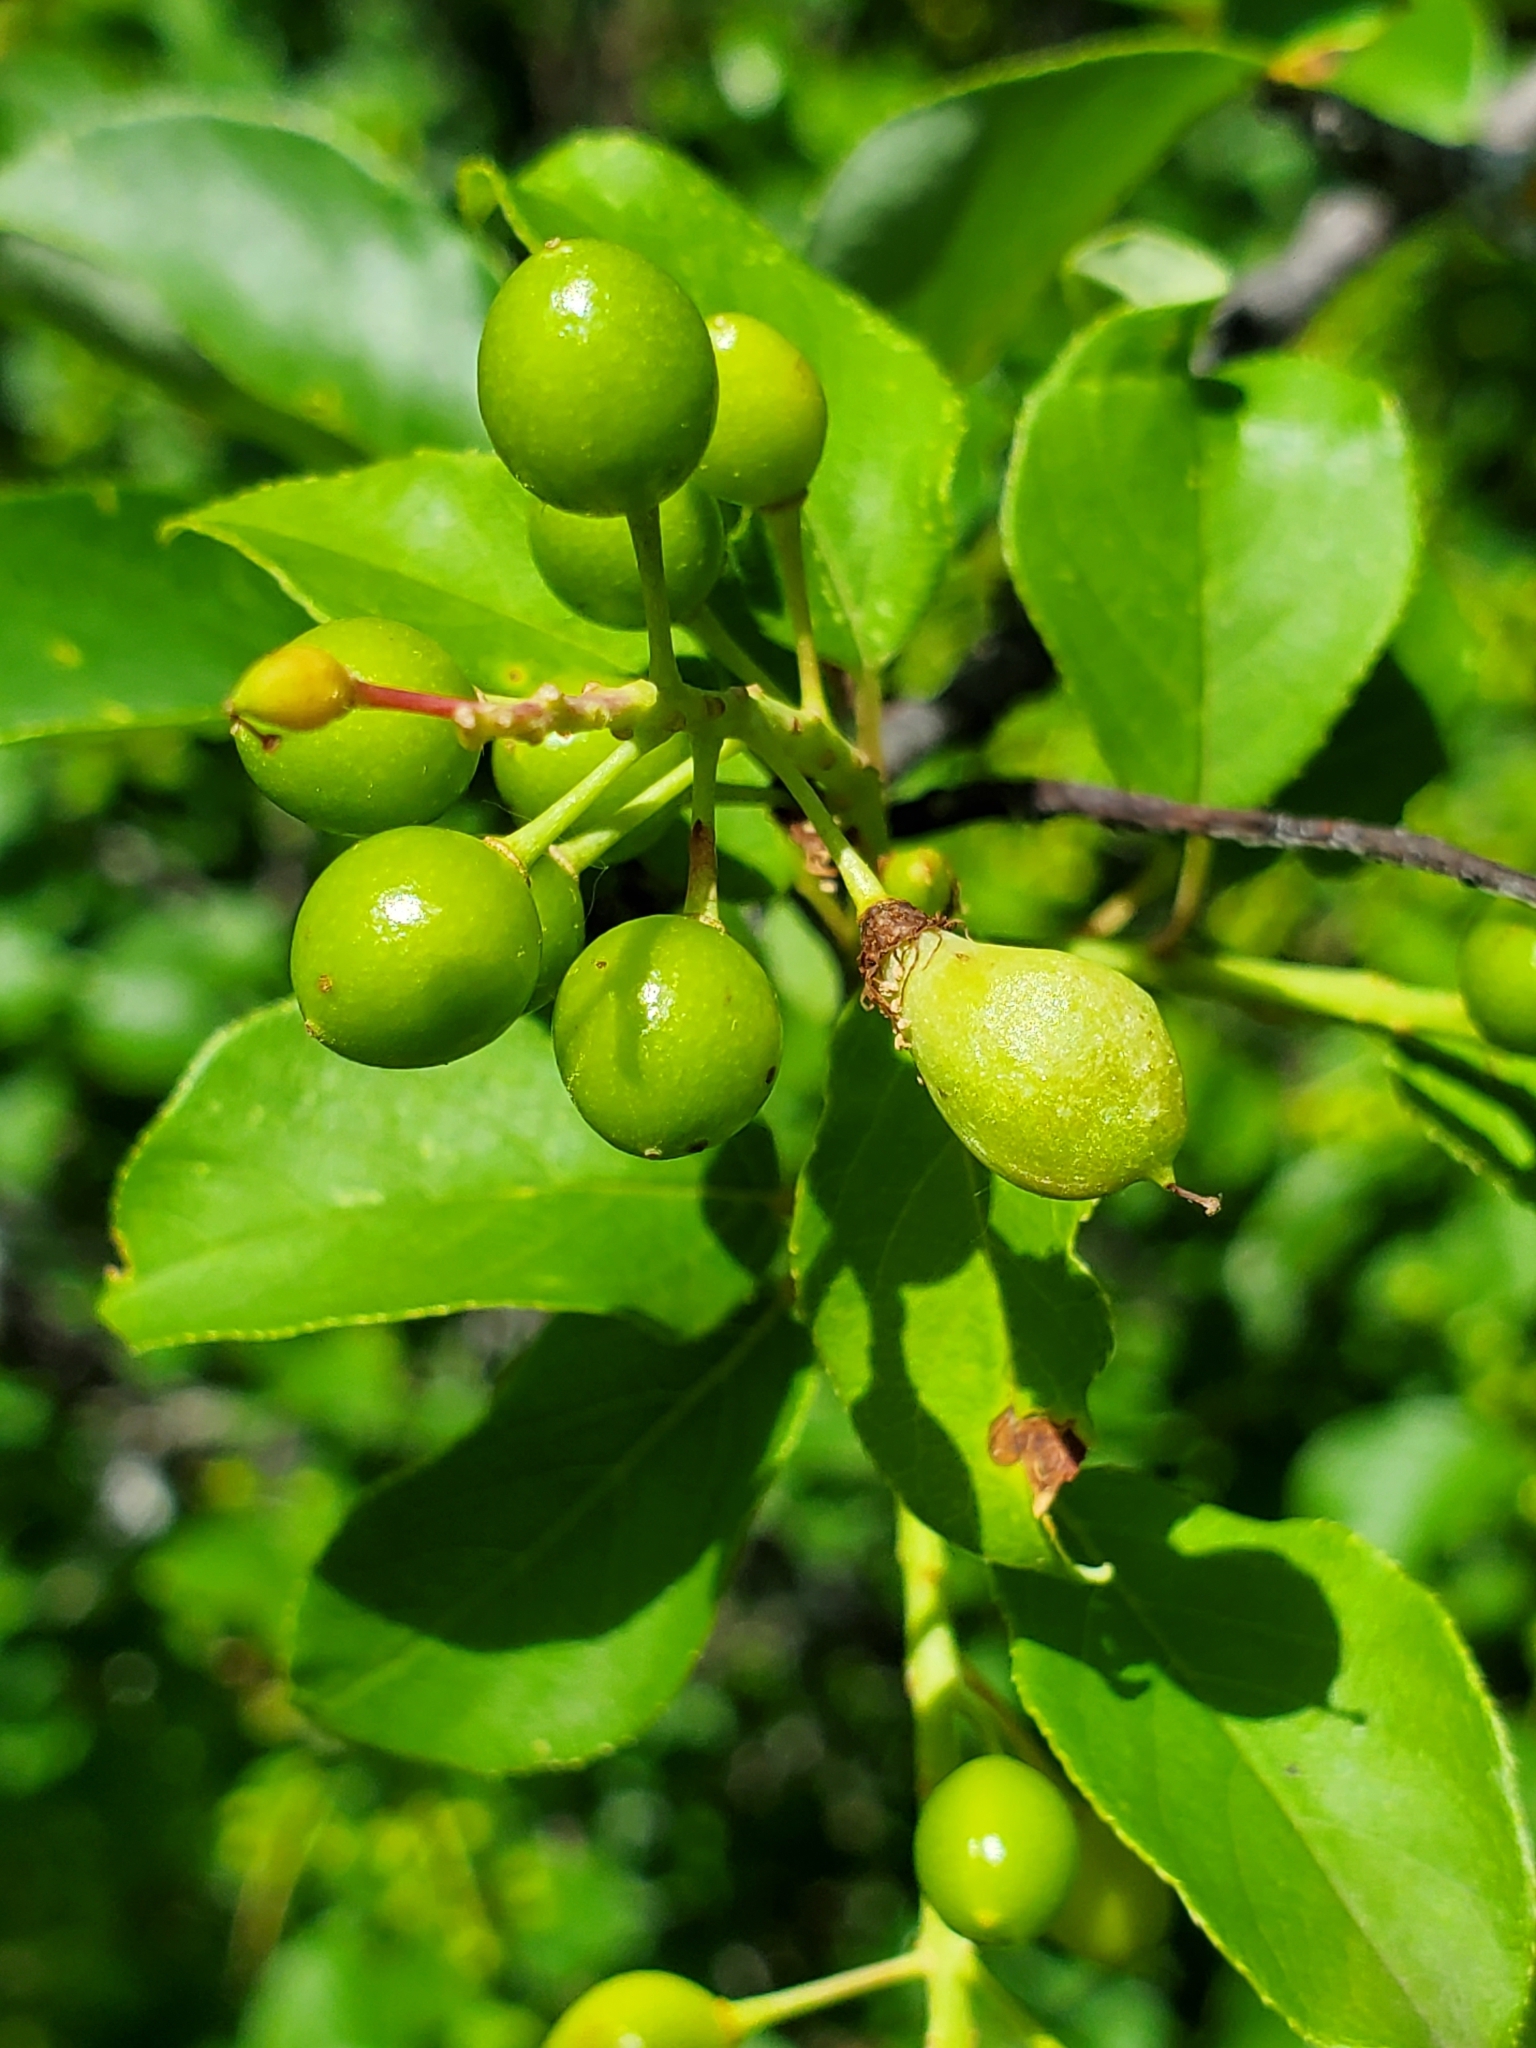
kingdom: Animalia
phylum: Arthropoda
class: Insecta
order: Diptera
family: Cecidomyiidae
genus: Contarinia
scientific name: Contarinia virginianiae
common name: Chokecherry midge
